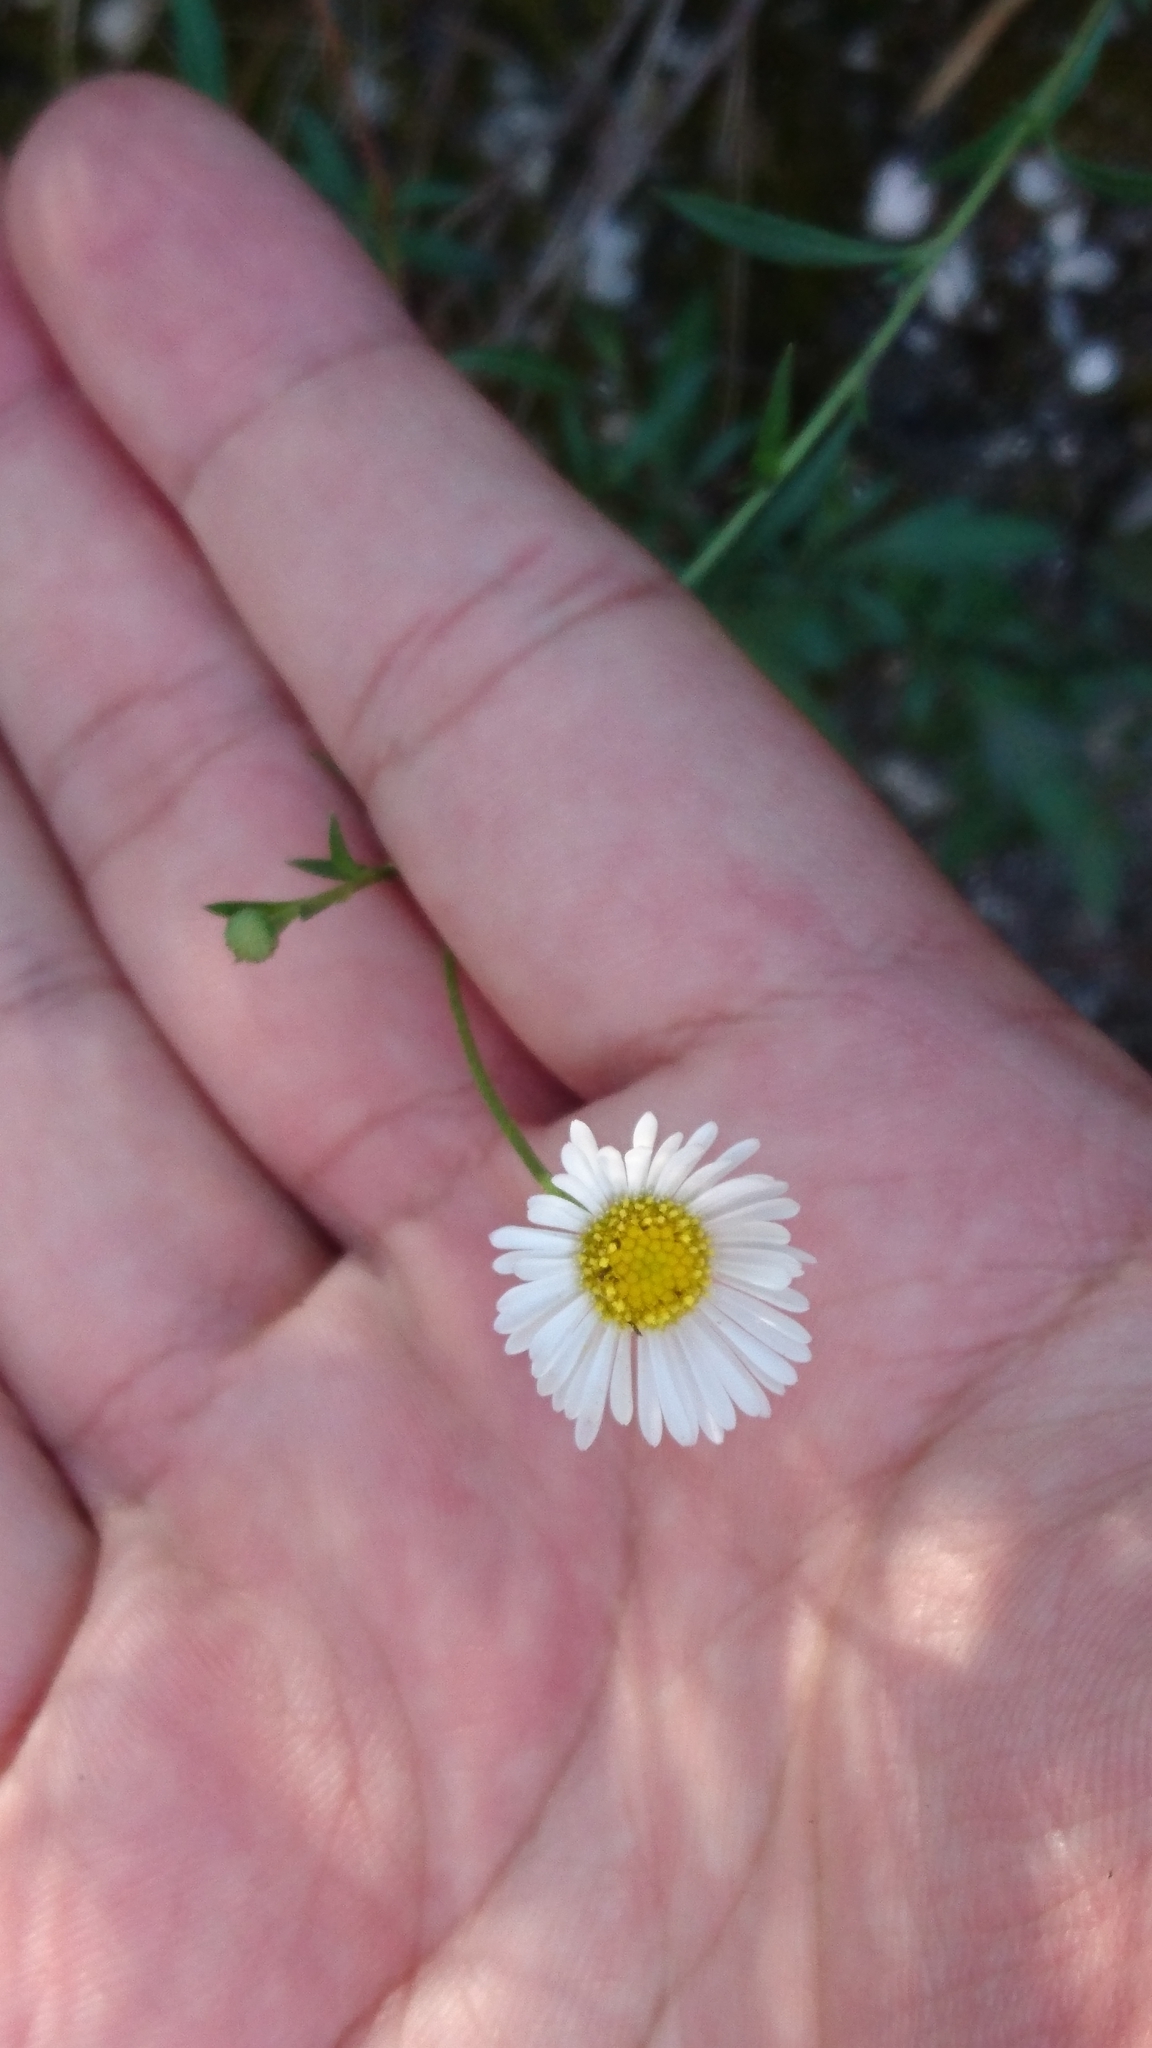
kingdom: Plantae
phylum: Tracheophyta
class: Magnoliopsida
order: Asterales
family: Asteraceae
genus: Erigeron
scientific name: Erigeron karvinskianus
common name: Mexican fleabane
